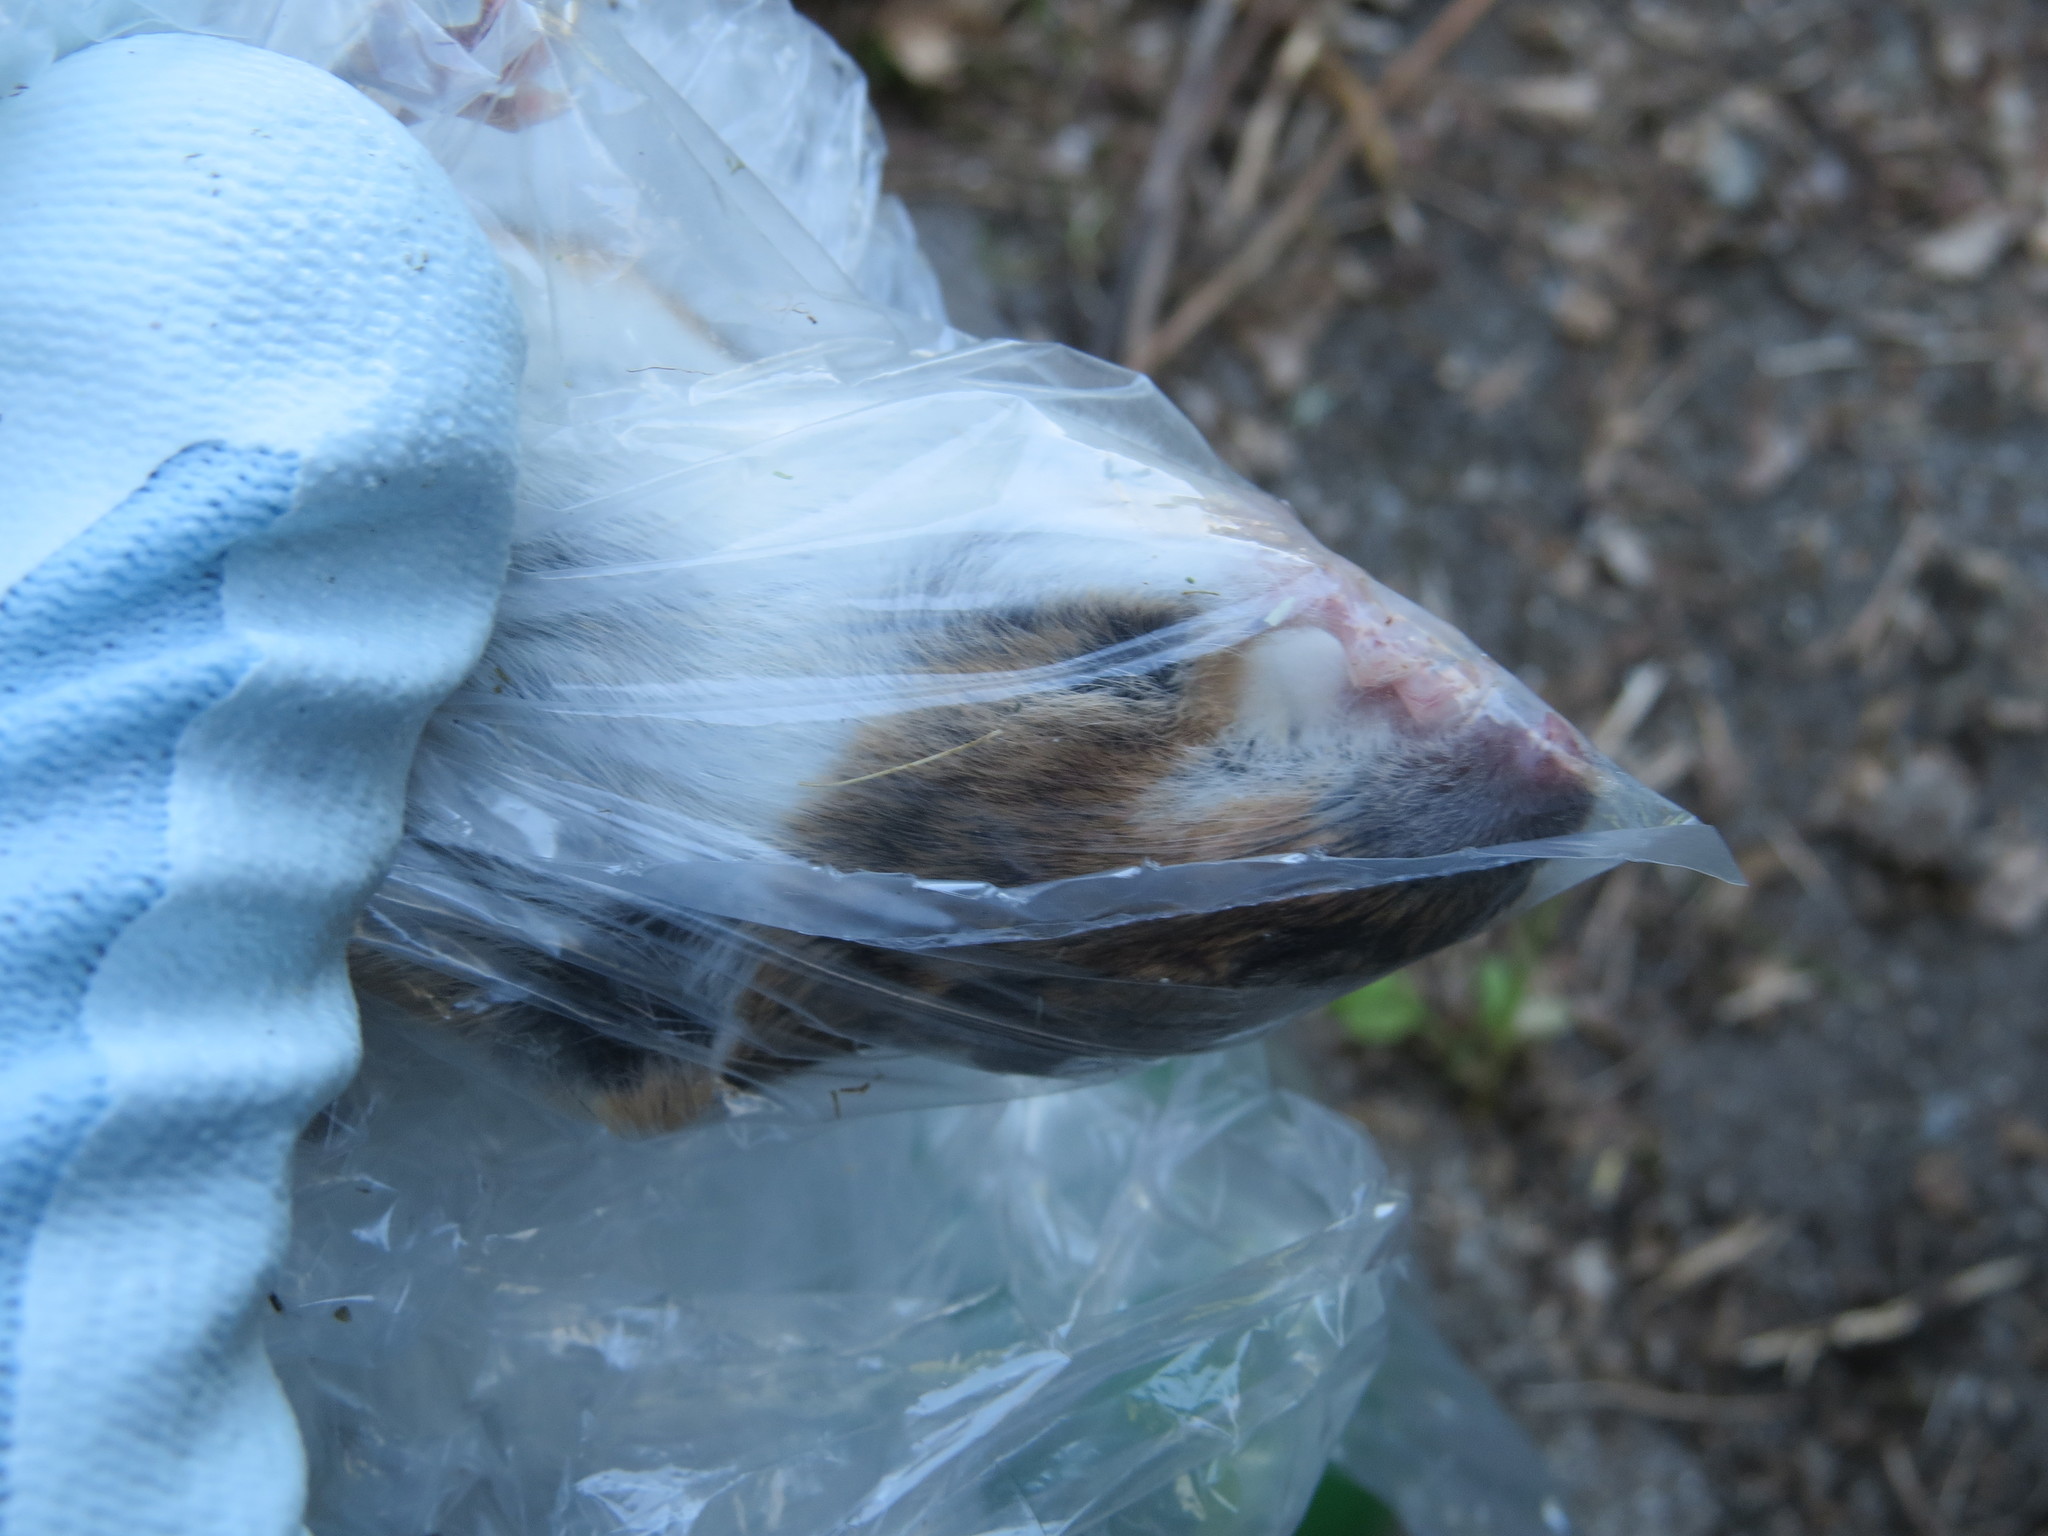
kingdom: Animalia
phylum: Chordata
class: Mammalia
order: Rodentia
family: Muridae
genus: Apodemus
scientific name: Apodemus flavicollis
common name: Yellow-necked field mouse
